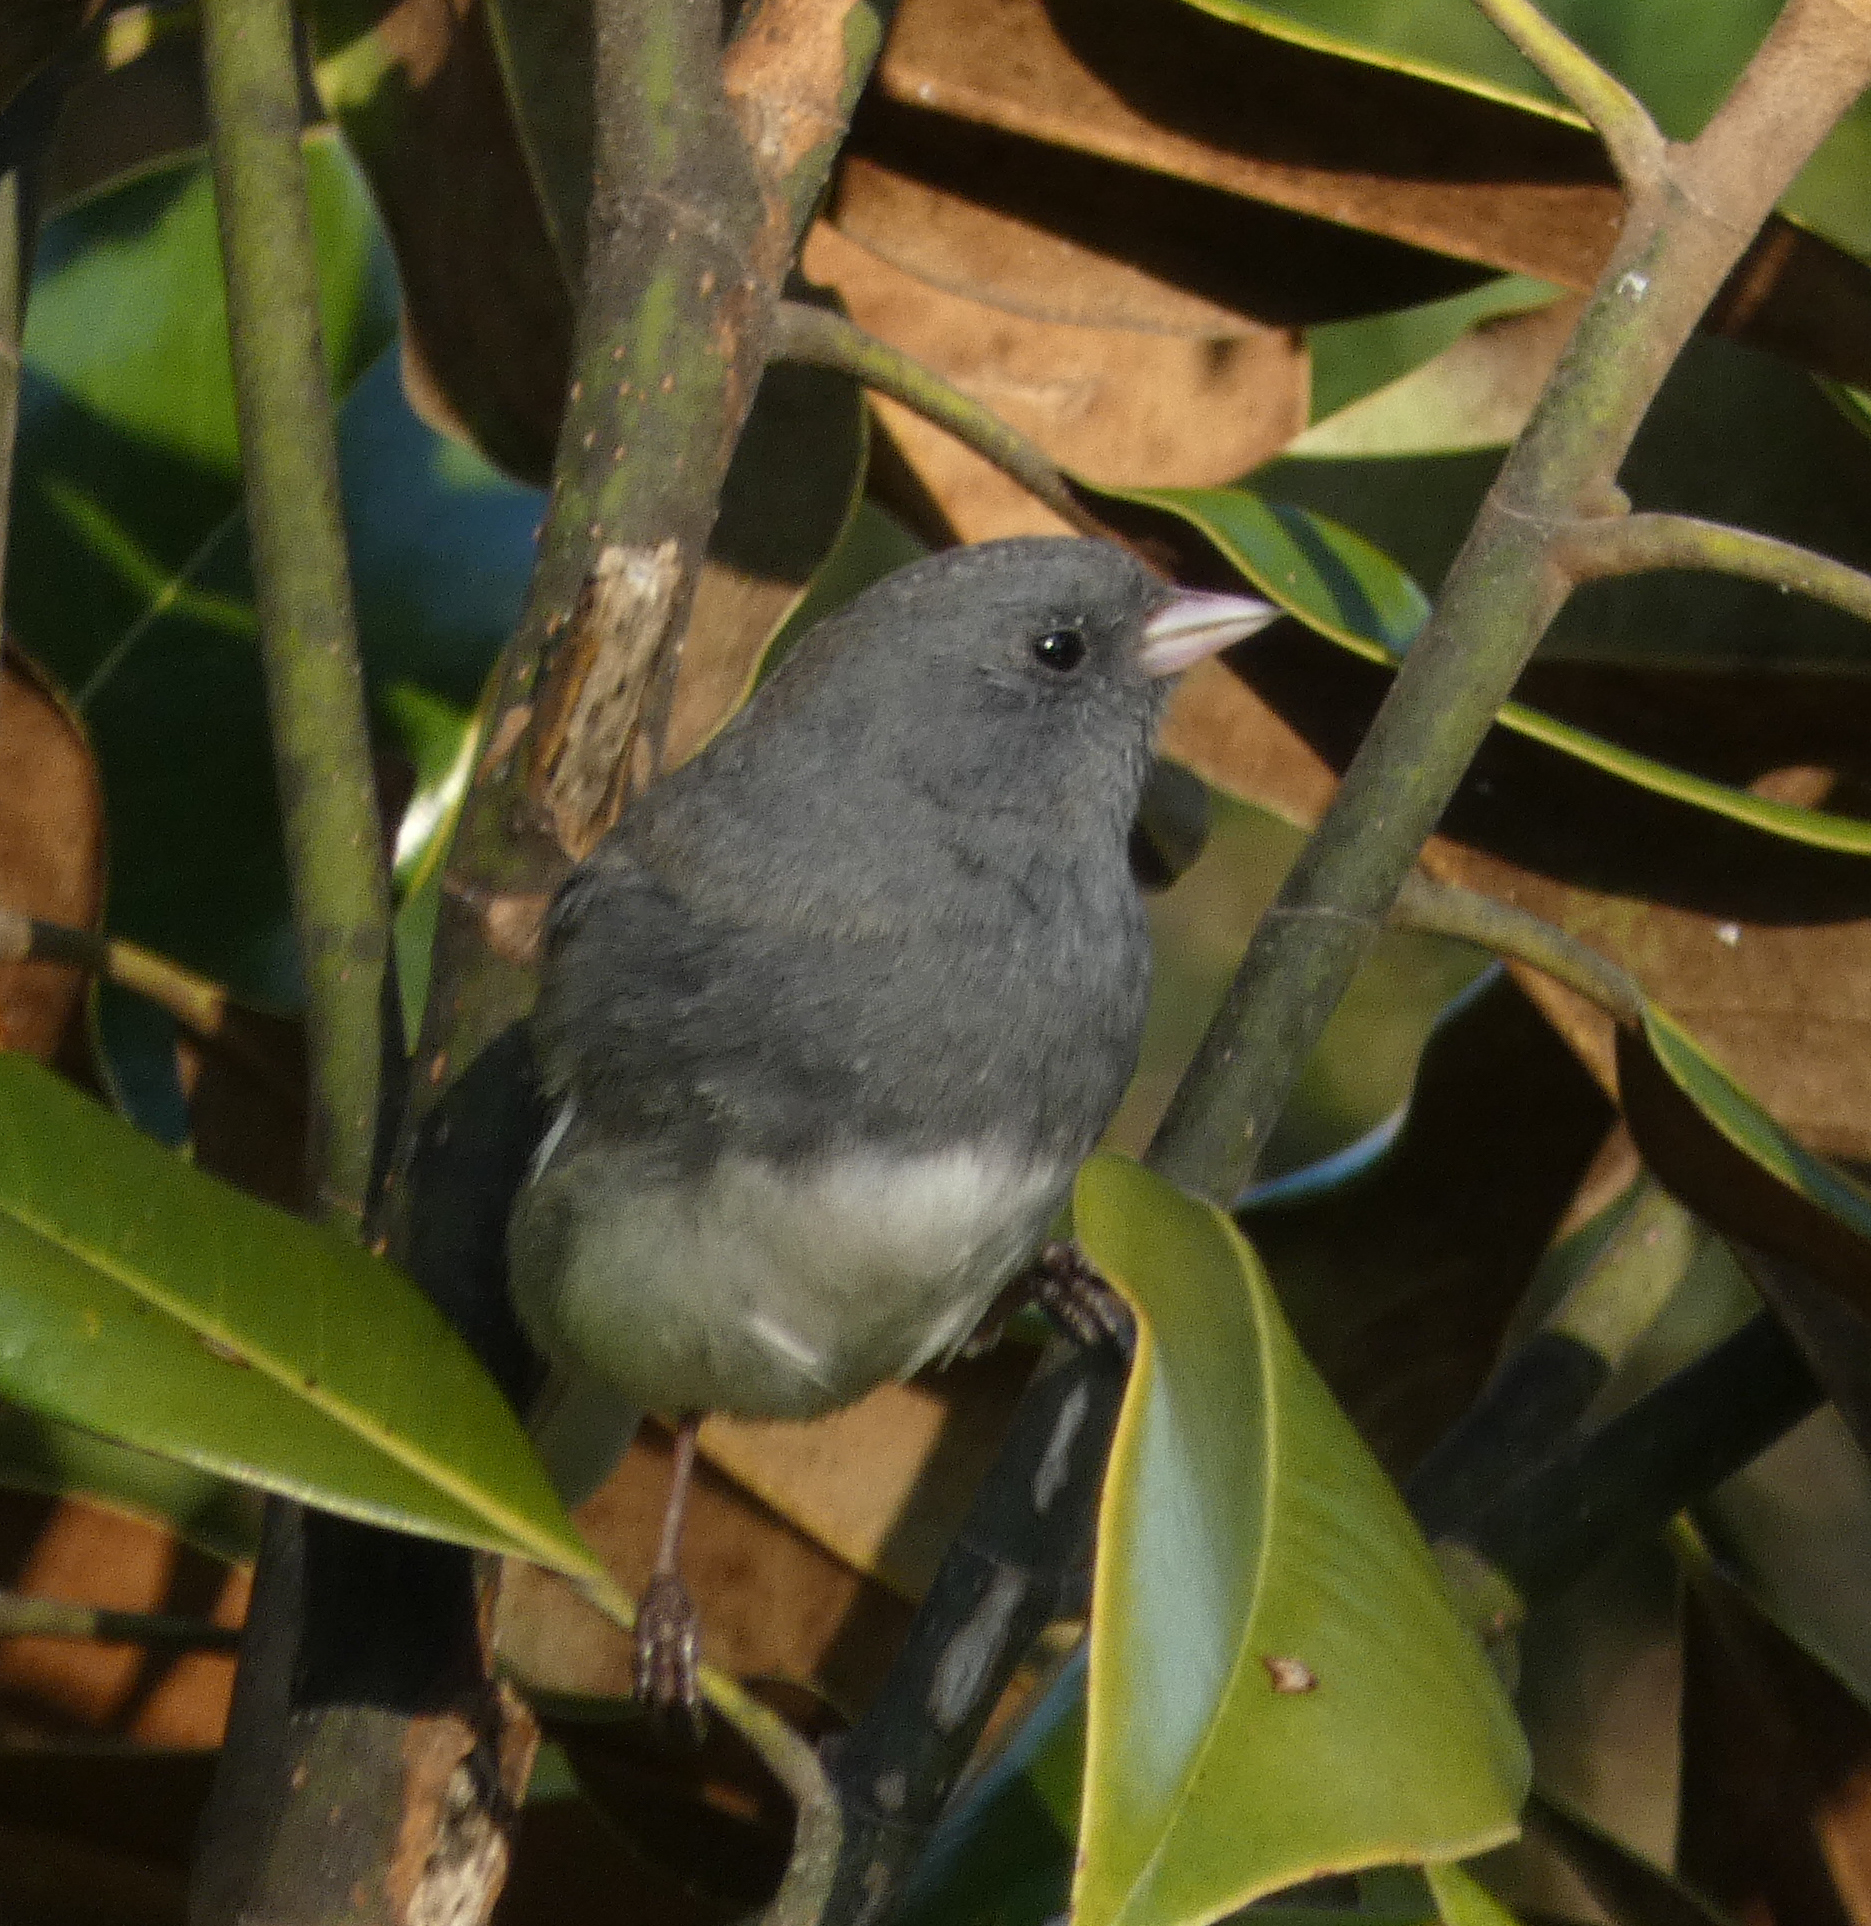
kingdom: Animalia
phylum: Chordata
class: Aves
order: Passeriformes
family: Passerellidae
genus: Junco
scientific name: Junco hyemalis
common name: Dark-eyed junco
